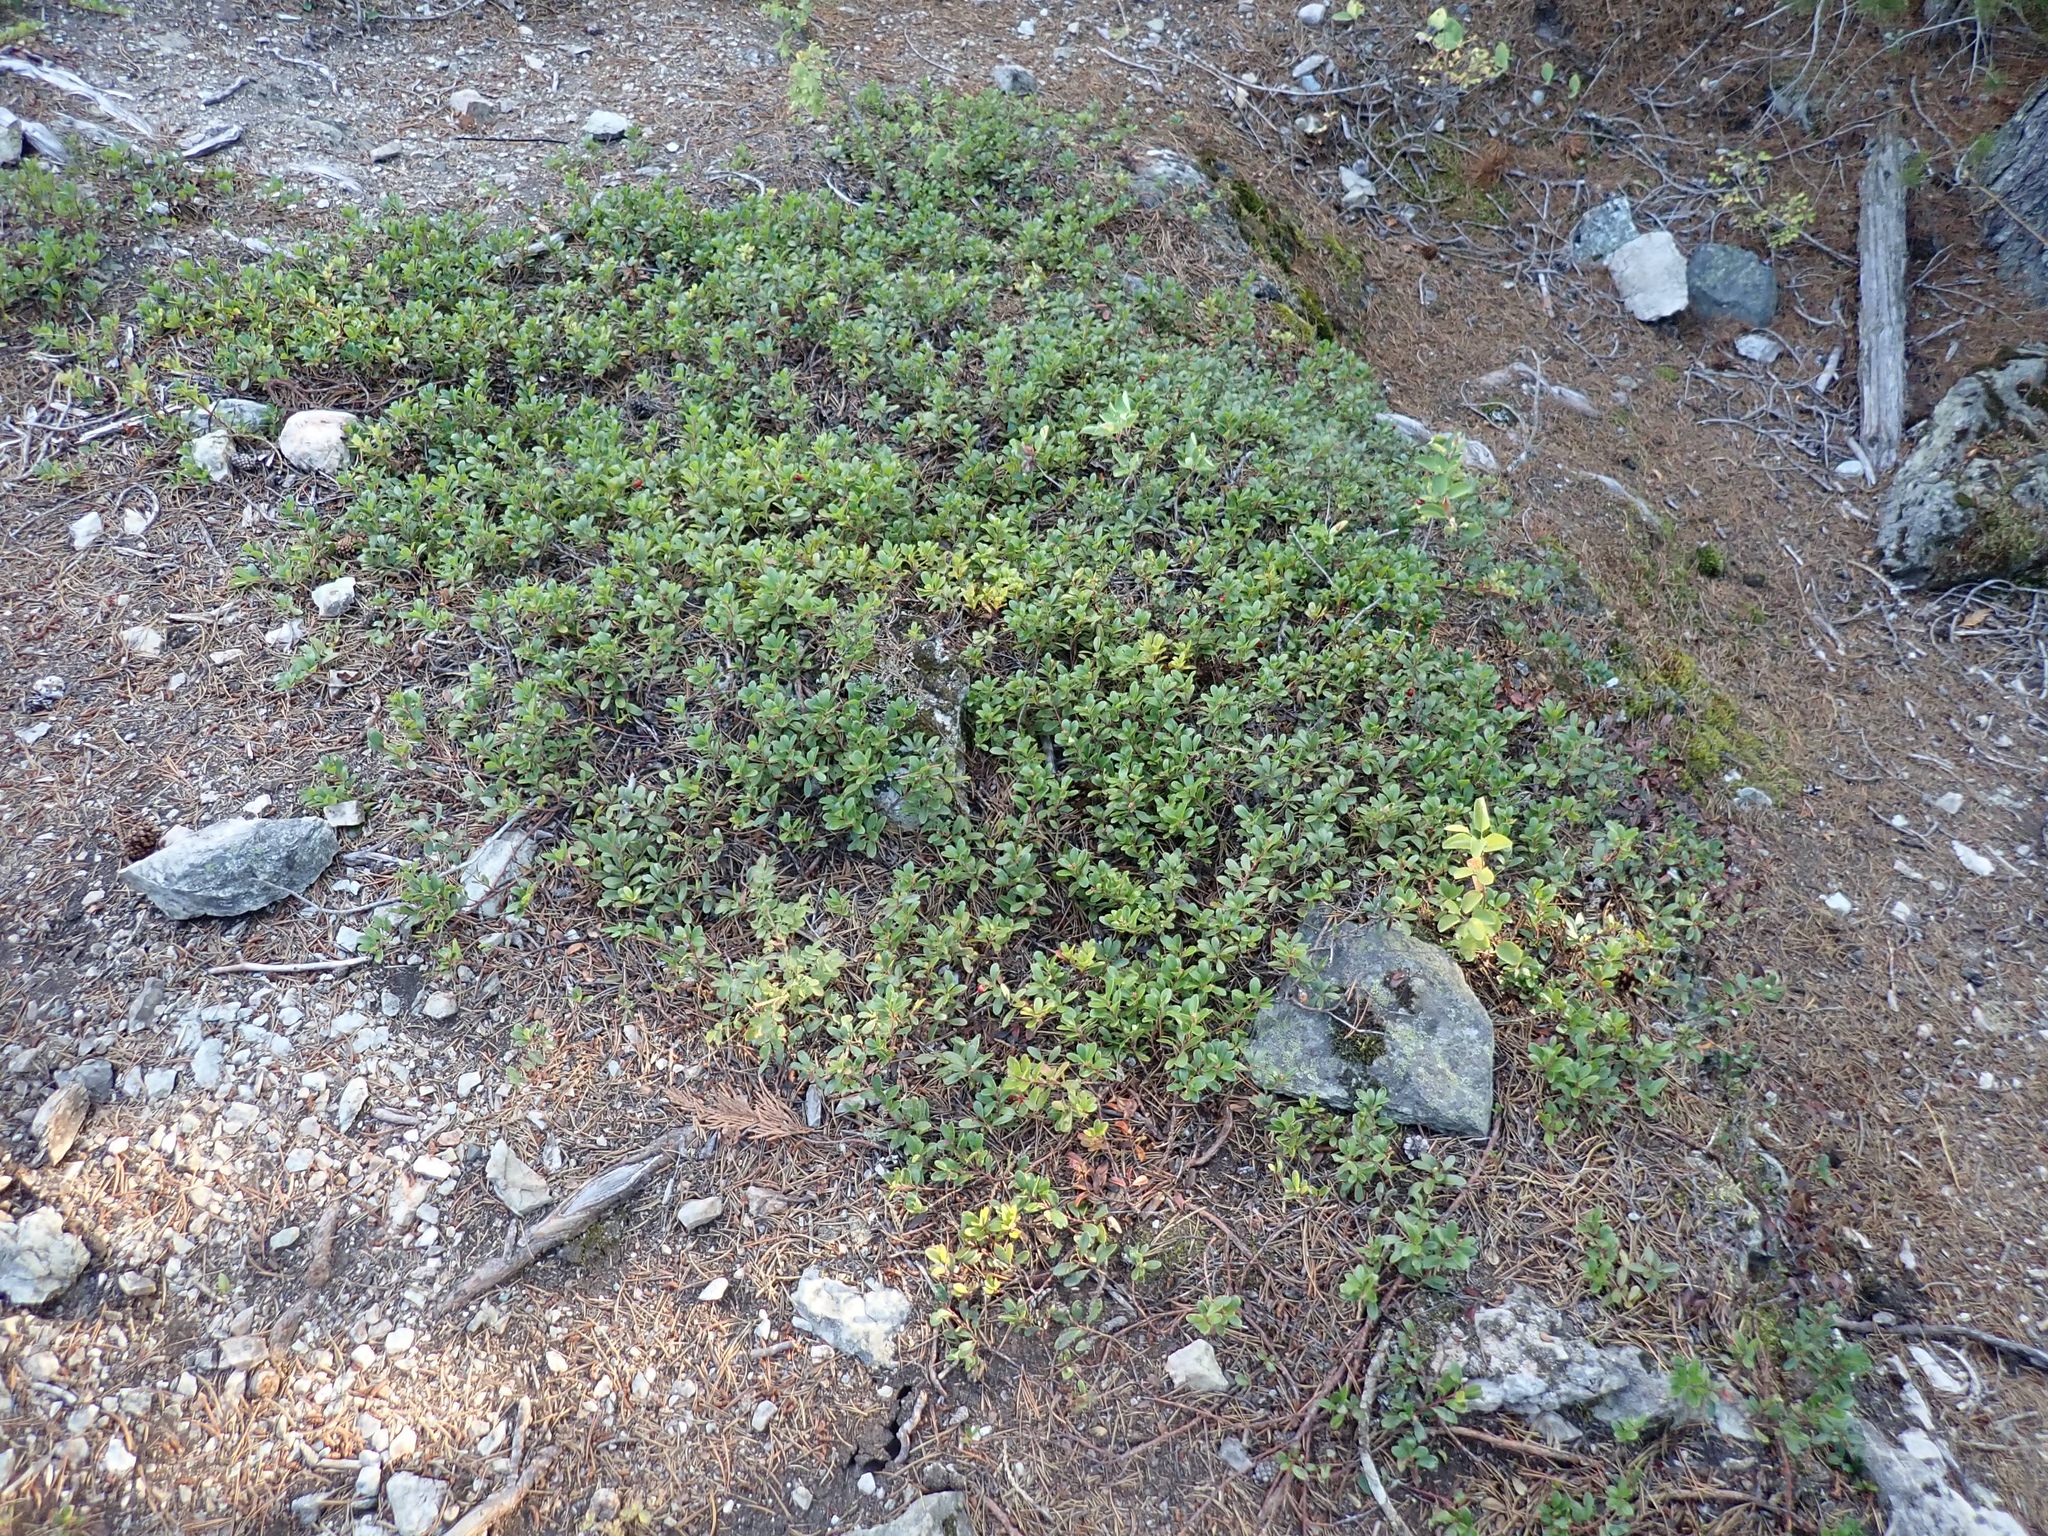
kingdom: Plantae
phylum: Tracheophyta
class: Magnoliopsida
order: Ericales
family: Ericaceae
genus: Arctostaphylos
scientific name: Arctostaphylos uva-ursi
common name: Bearberry
